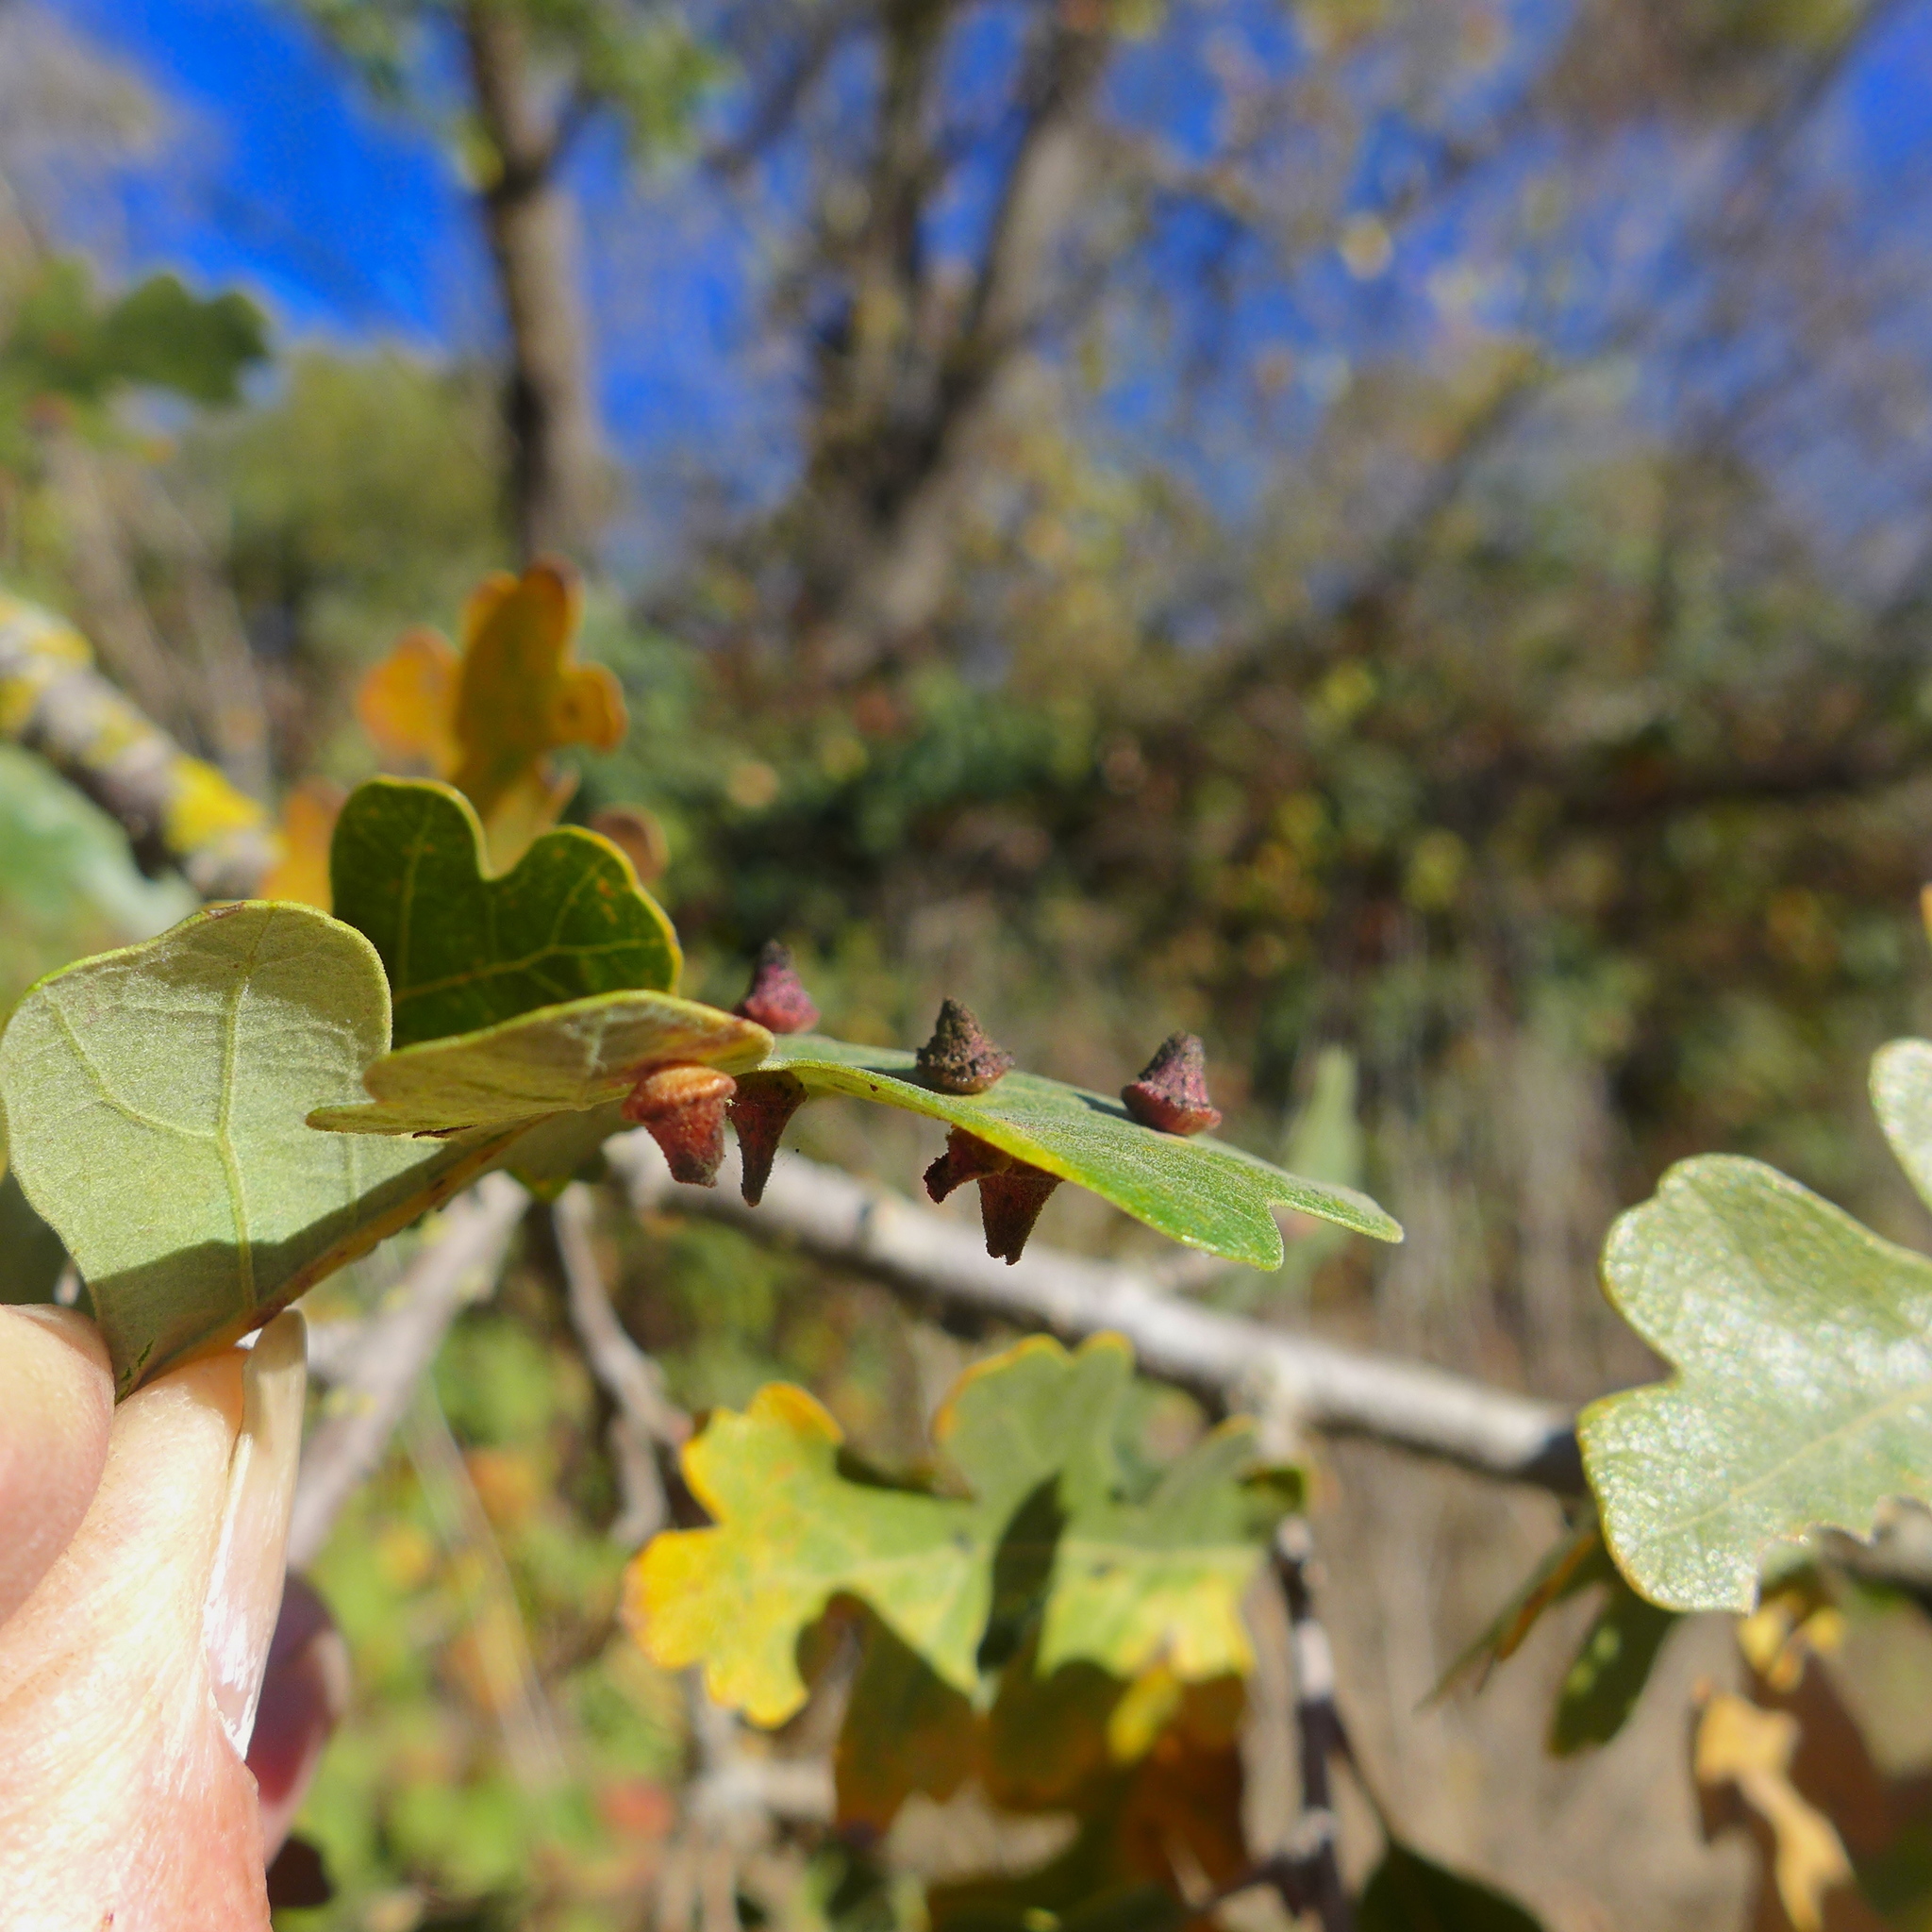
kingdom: Animalia
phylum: Arthropoda
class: Insecta
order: Hymenoptera
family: Cynipidae
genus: Andricus
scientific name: Andricus
